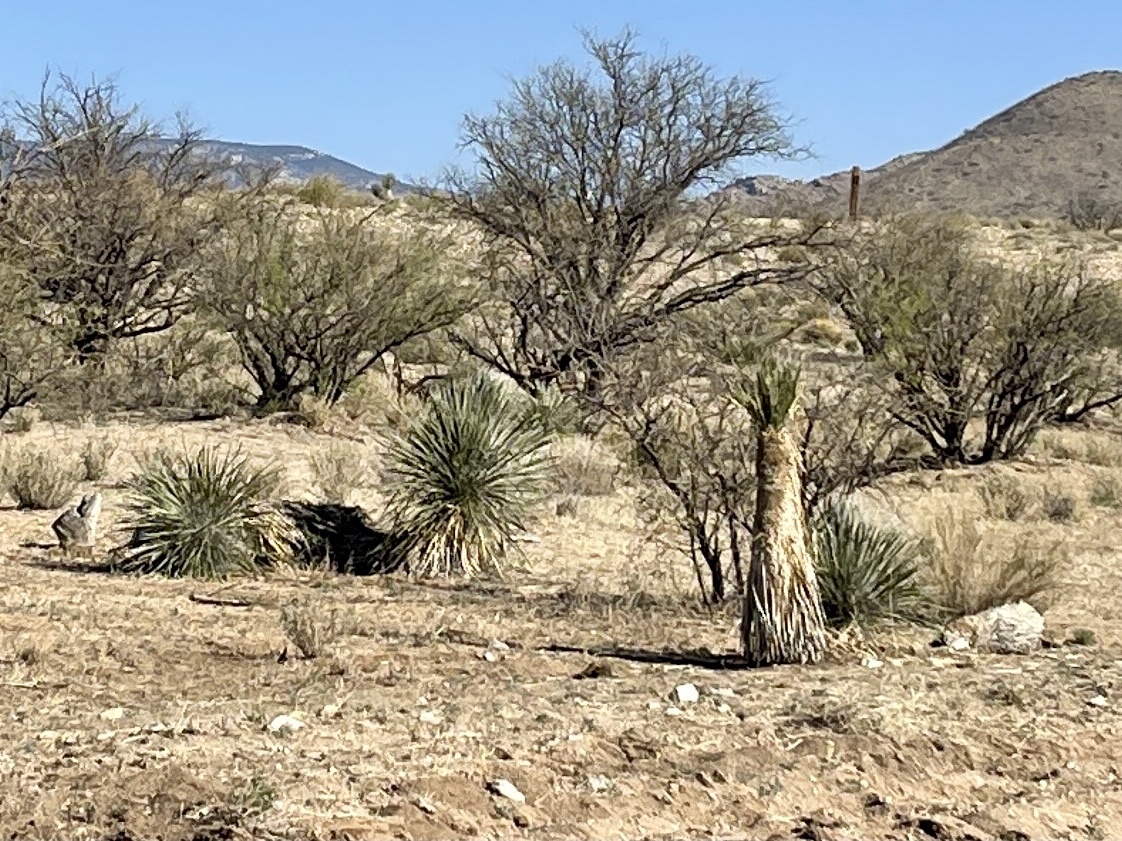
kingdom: Plantae
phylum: Tracheophyta
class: Liliopsida
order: Asparagales
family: Asparagaceae
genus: Yucca
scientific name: Yucca elata
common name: Palmella
